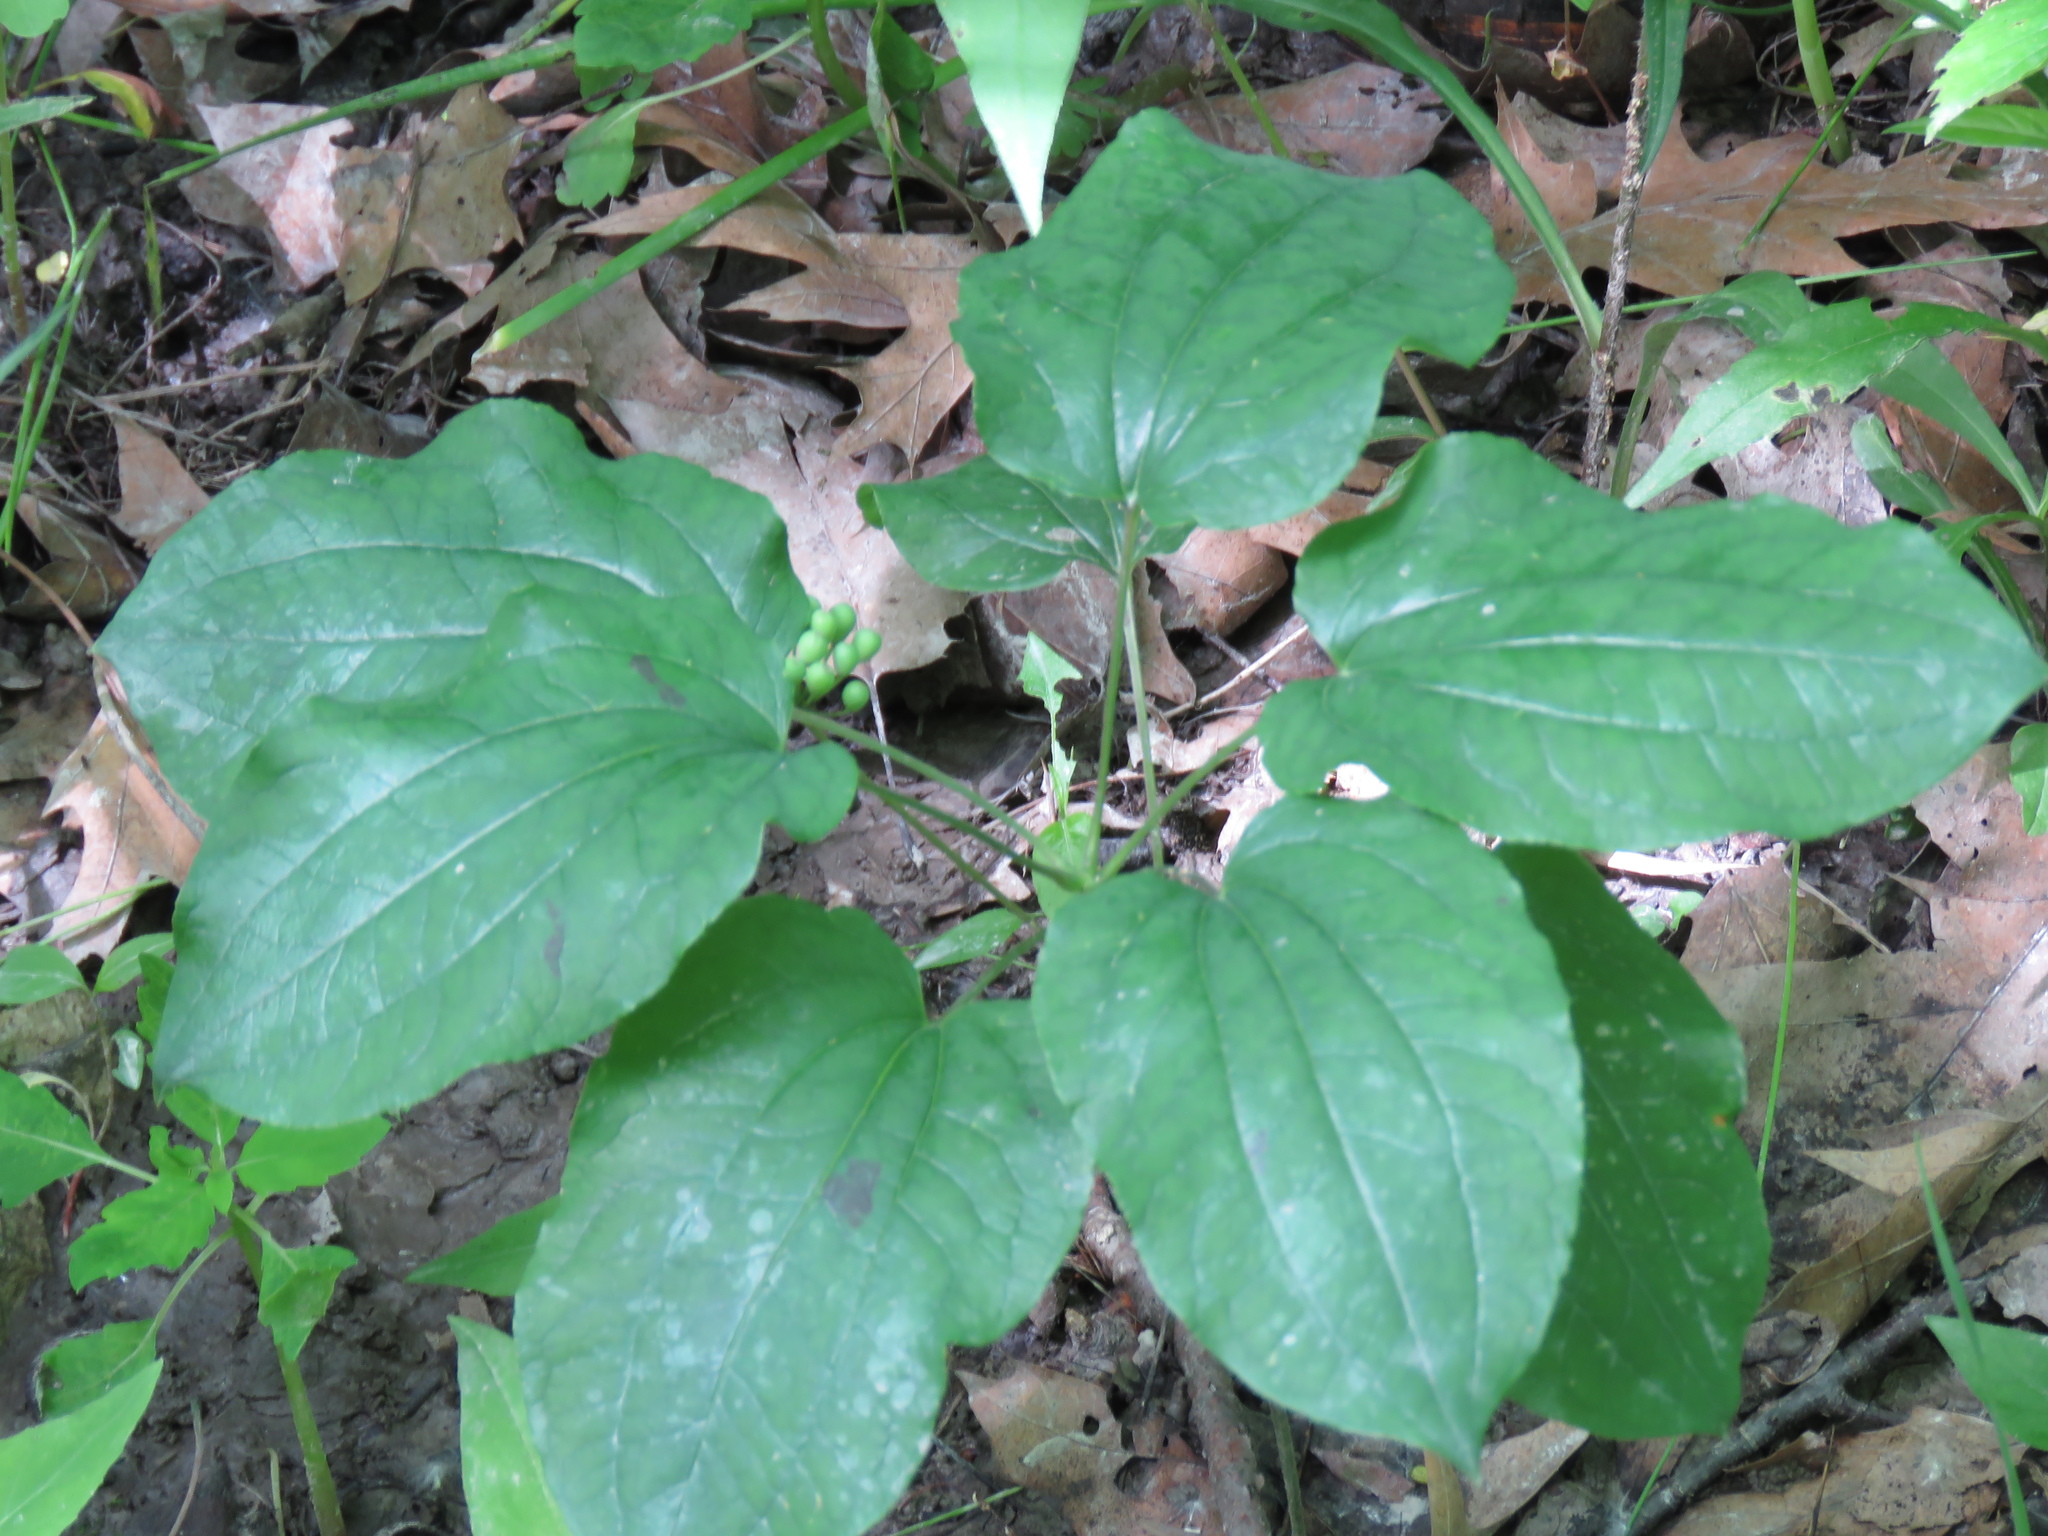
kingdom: Plantae
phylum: Tracheophyta
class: Liliopsida
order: Liliales
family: Smilacaceae
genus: Smilax
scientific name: Smilax ecirrhata
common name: Upright carrionflower
